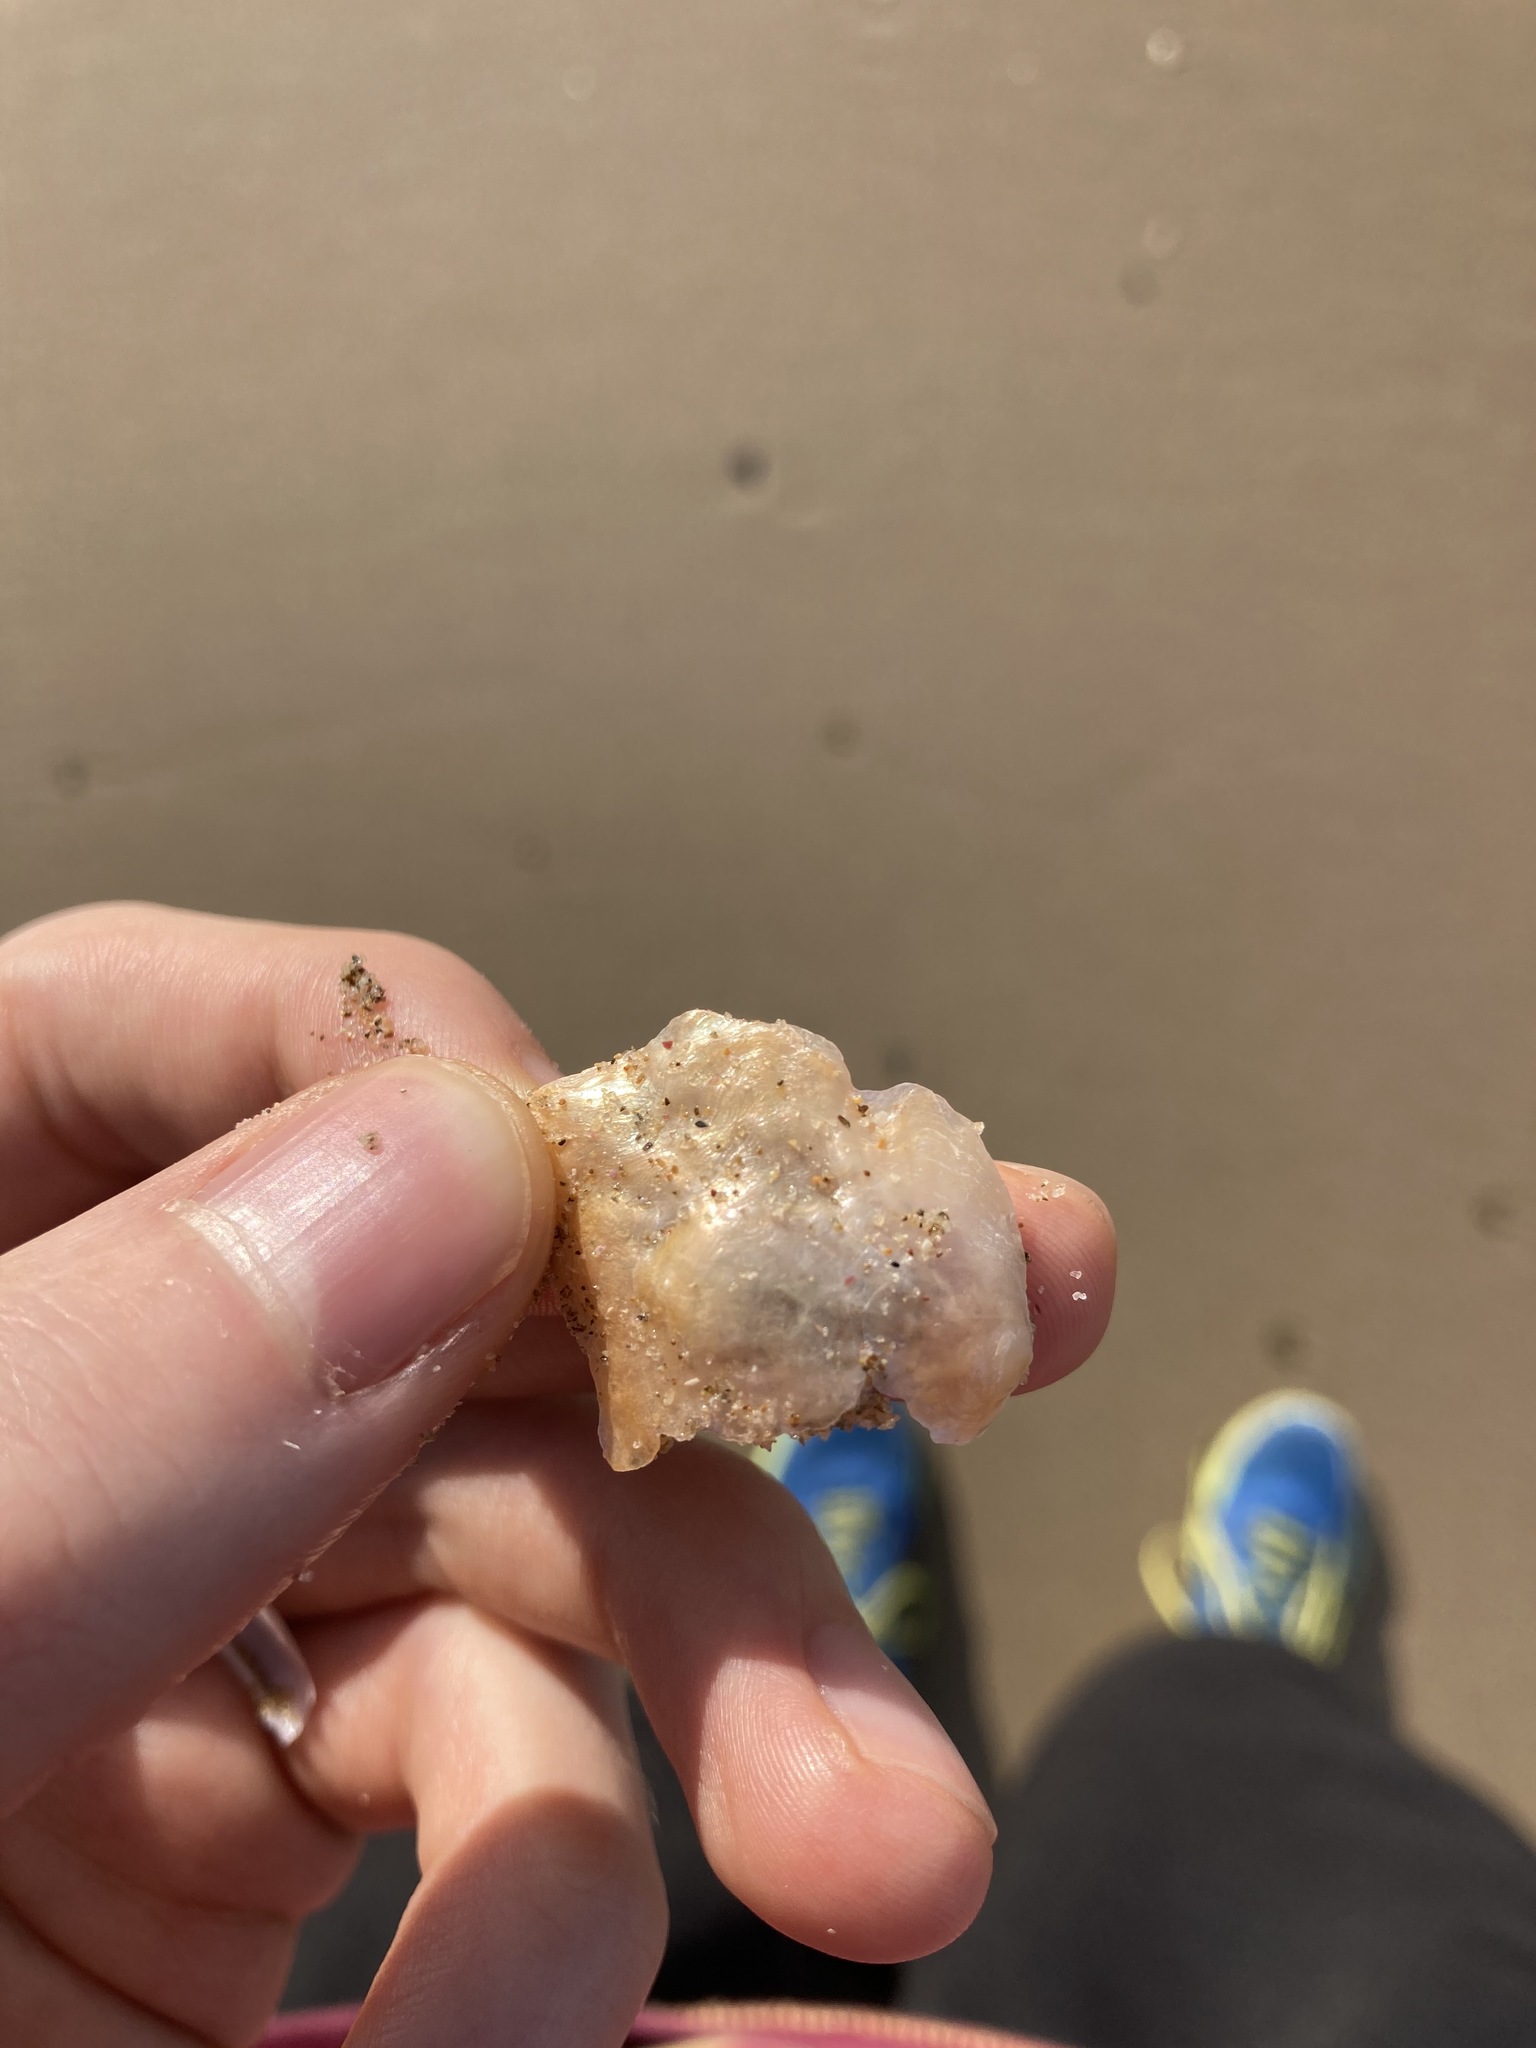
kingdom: Animalia
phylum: Mollusca
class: Bivalvia
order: Pectinida
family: Anomiidae
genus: Anomia
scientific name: Anomia trigonopsis
